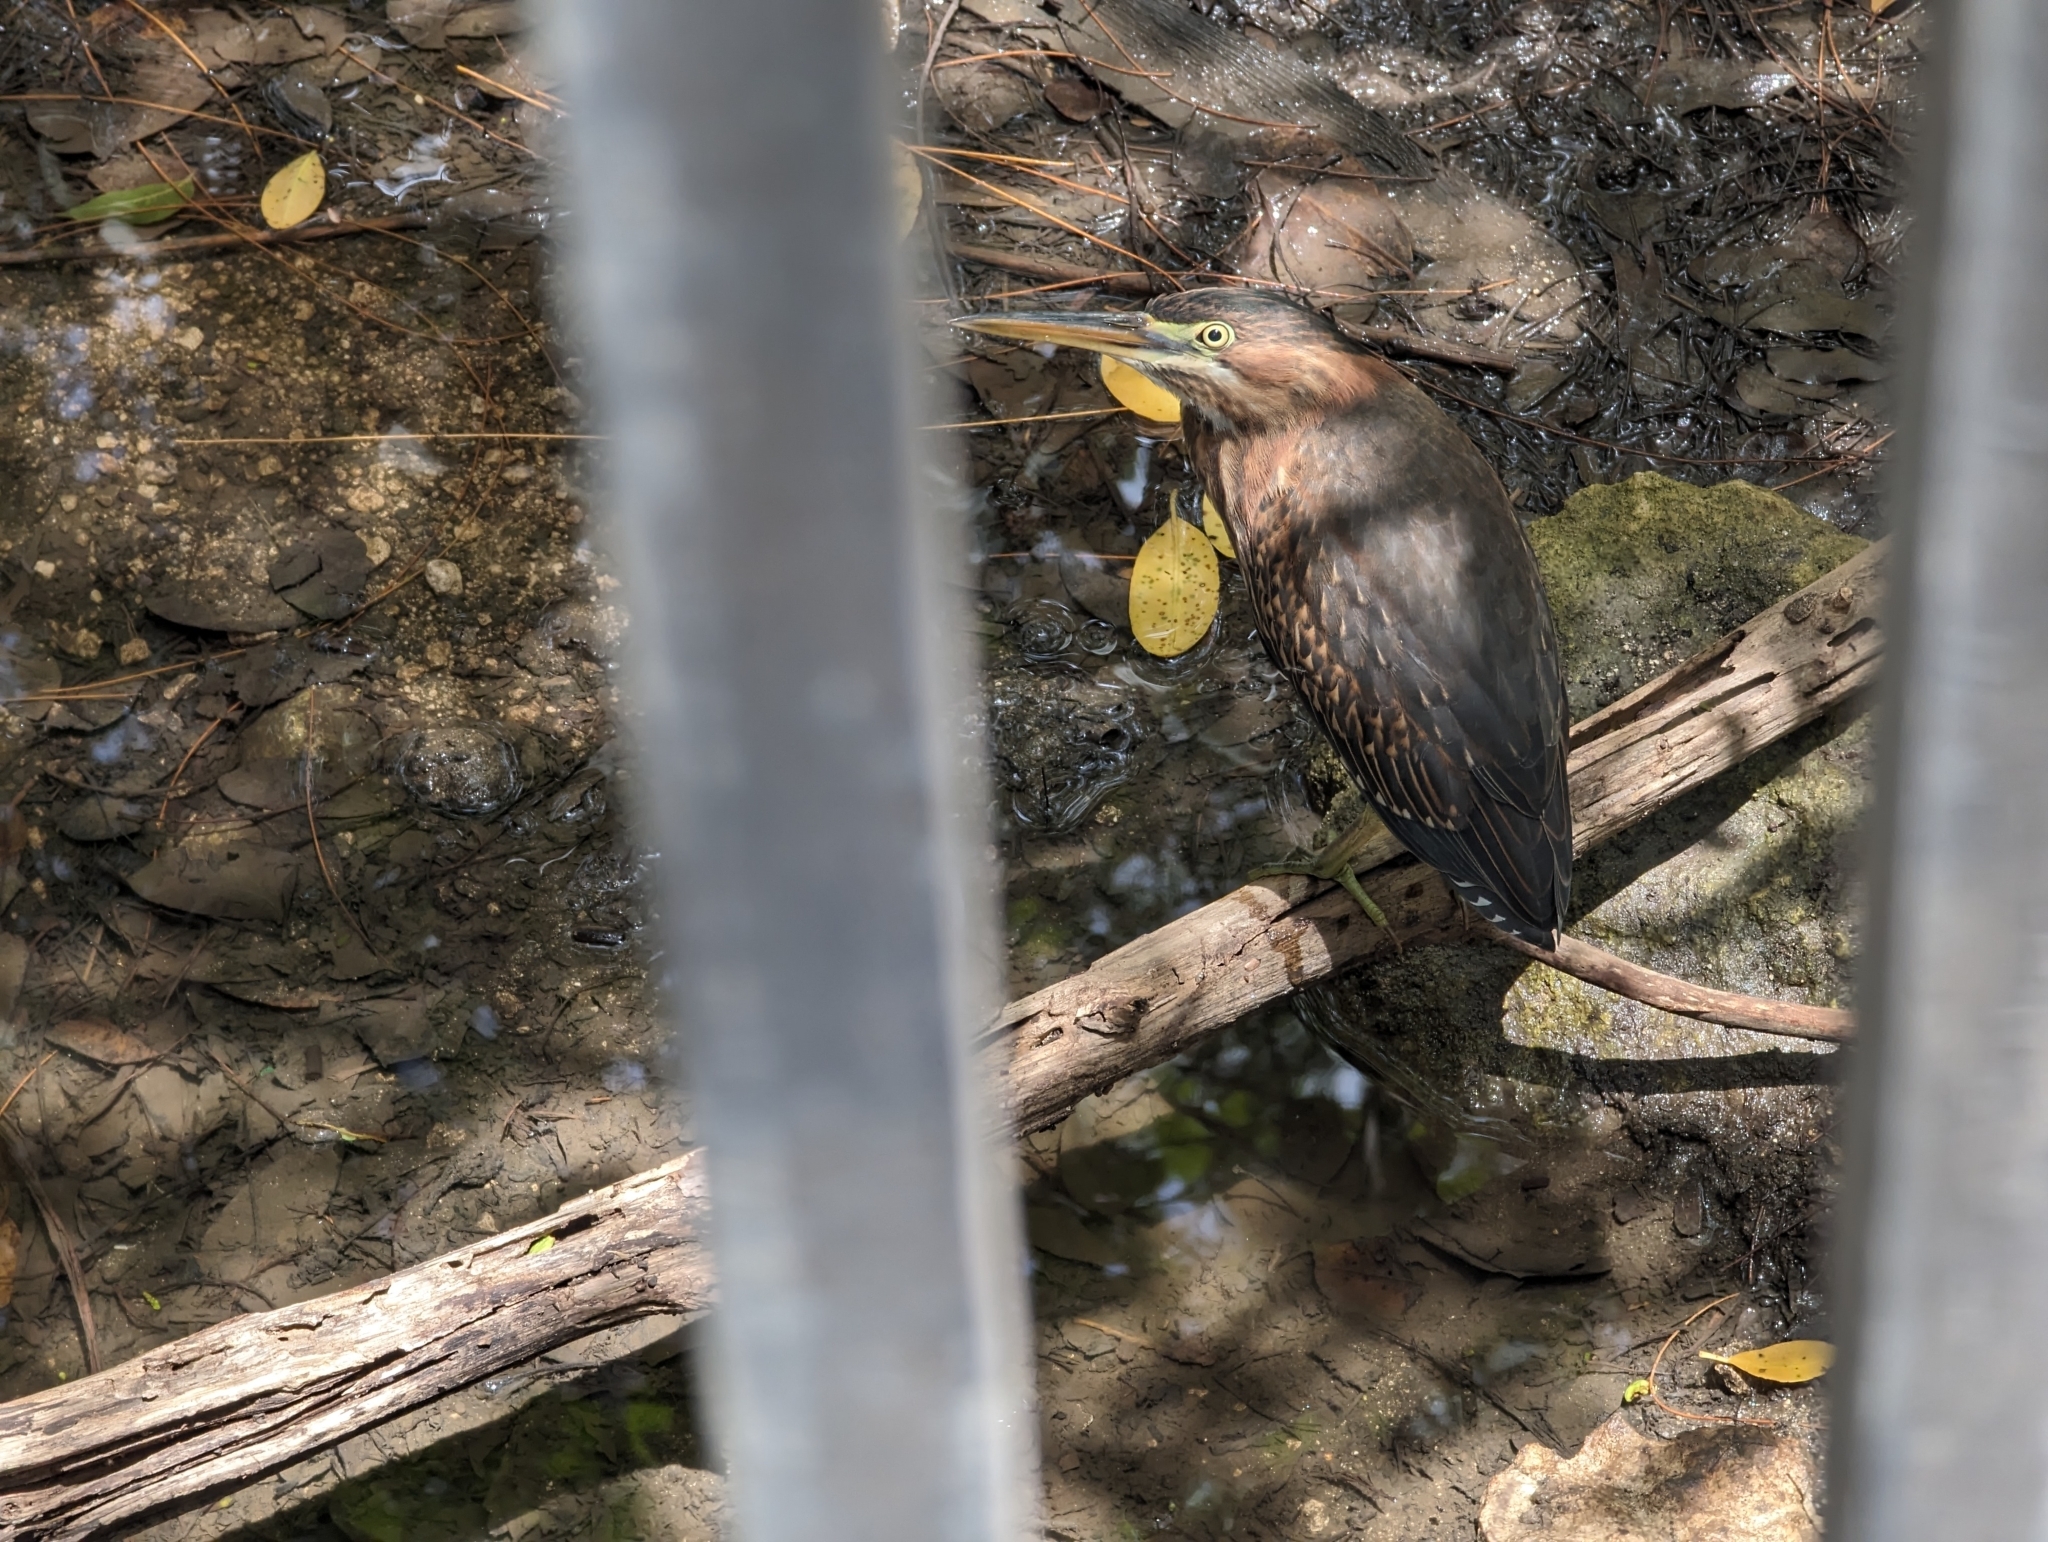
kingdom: Animalia
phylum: Chordata
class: Aves
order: Pelecaniformes
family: Ardeidae
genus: Butorides
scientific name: Butorides virescens
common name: Green heron
